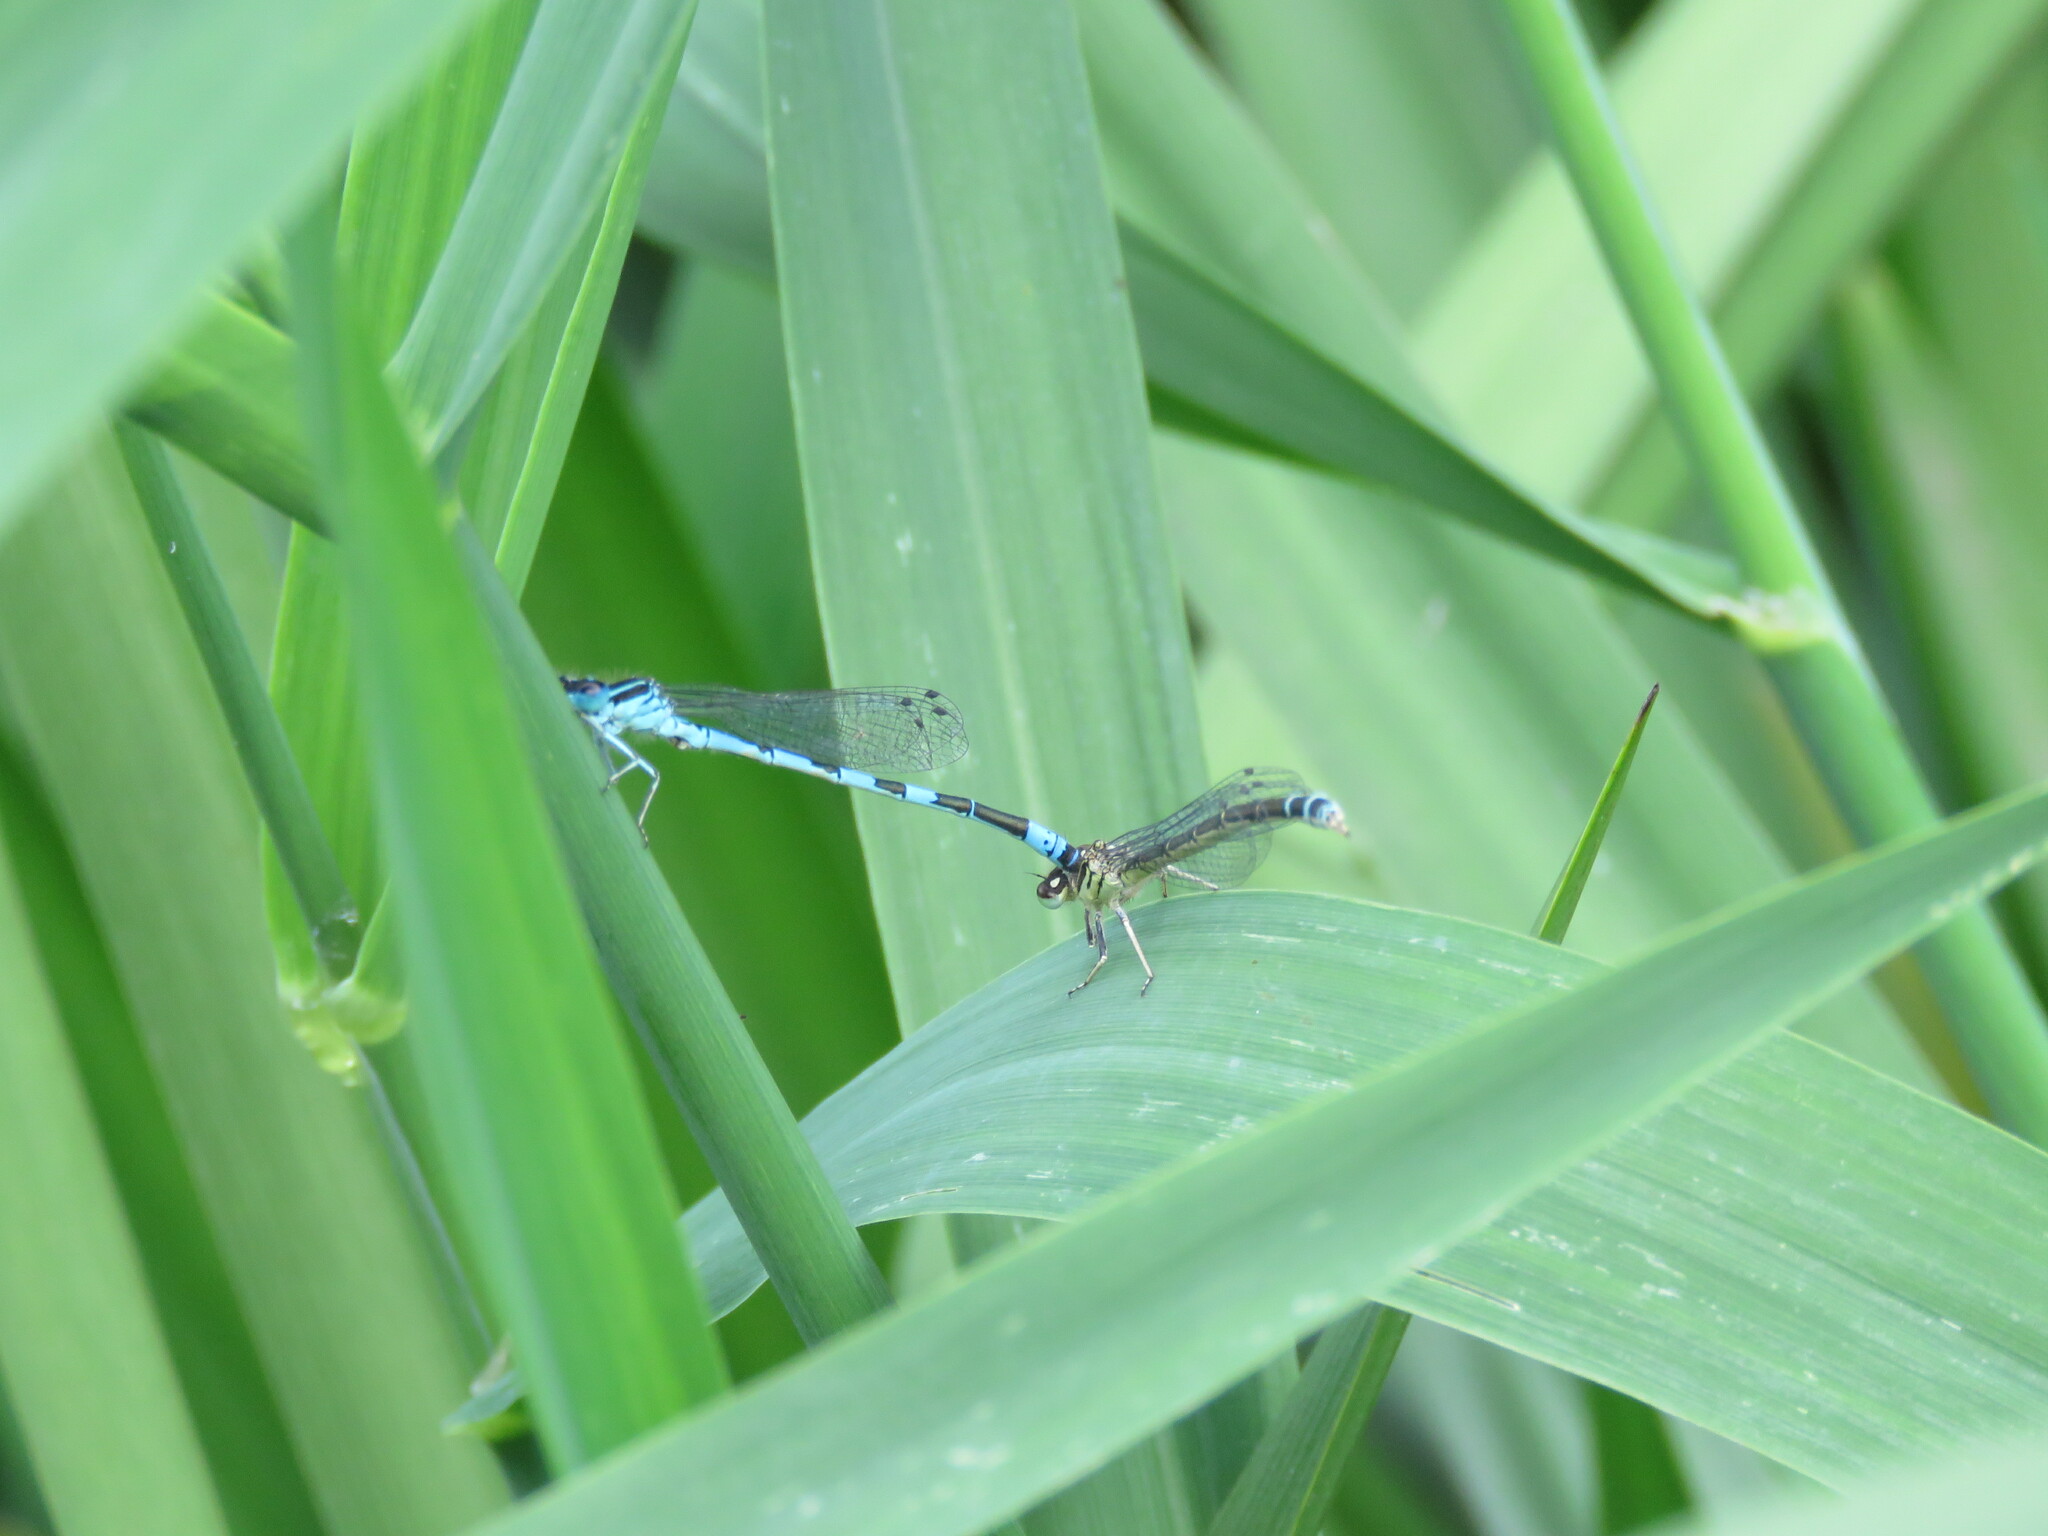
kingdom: Animalia
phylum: Arthropoda
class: Insecta
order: Odonata
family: Coenagrionidae
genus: Coenagrion
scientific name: Coenagrion mercuriale
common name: Southern damselfly
